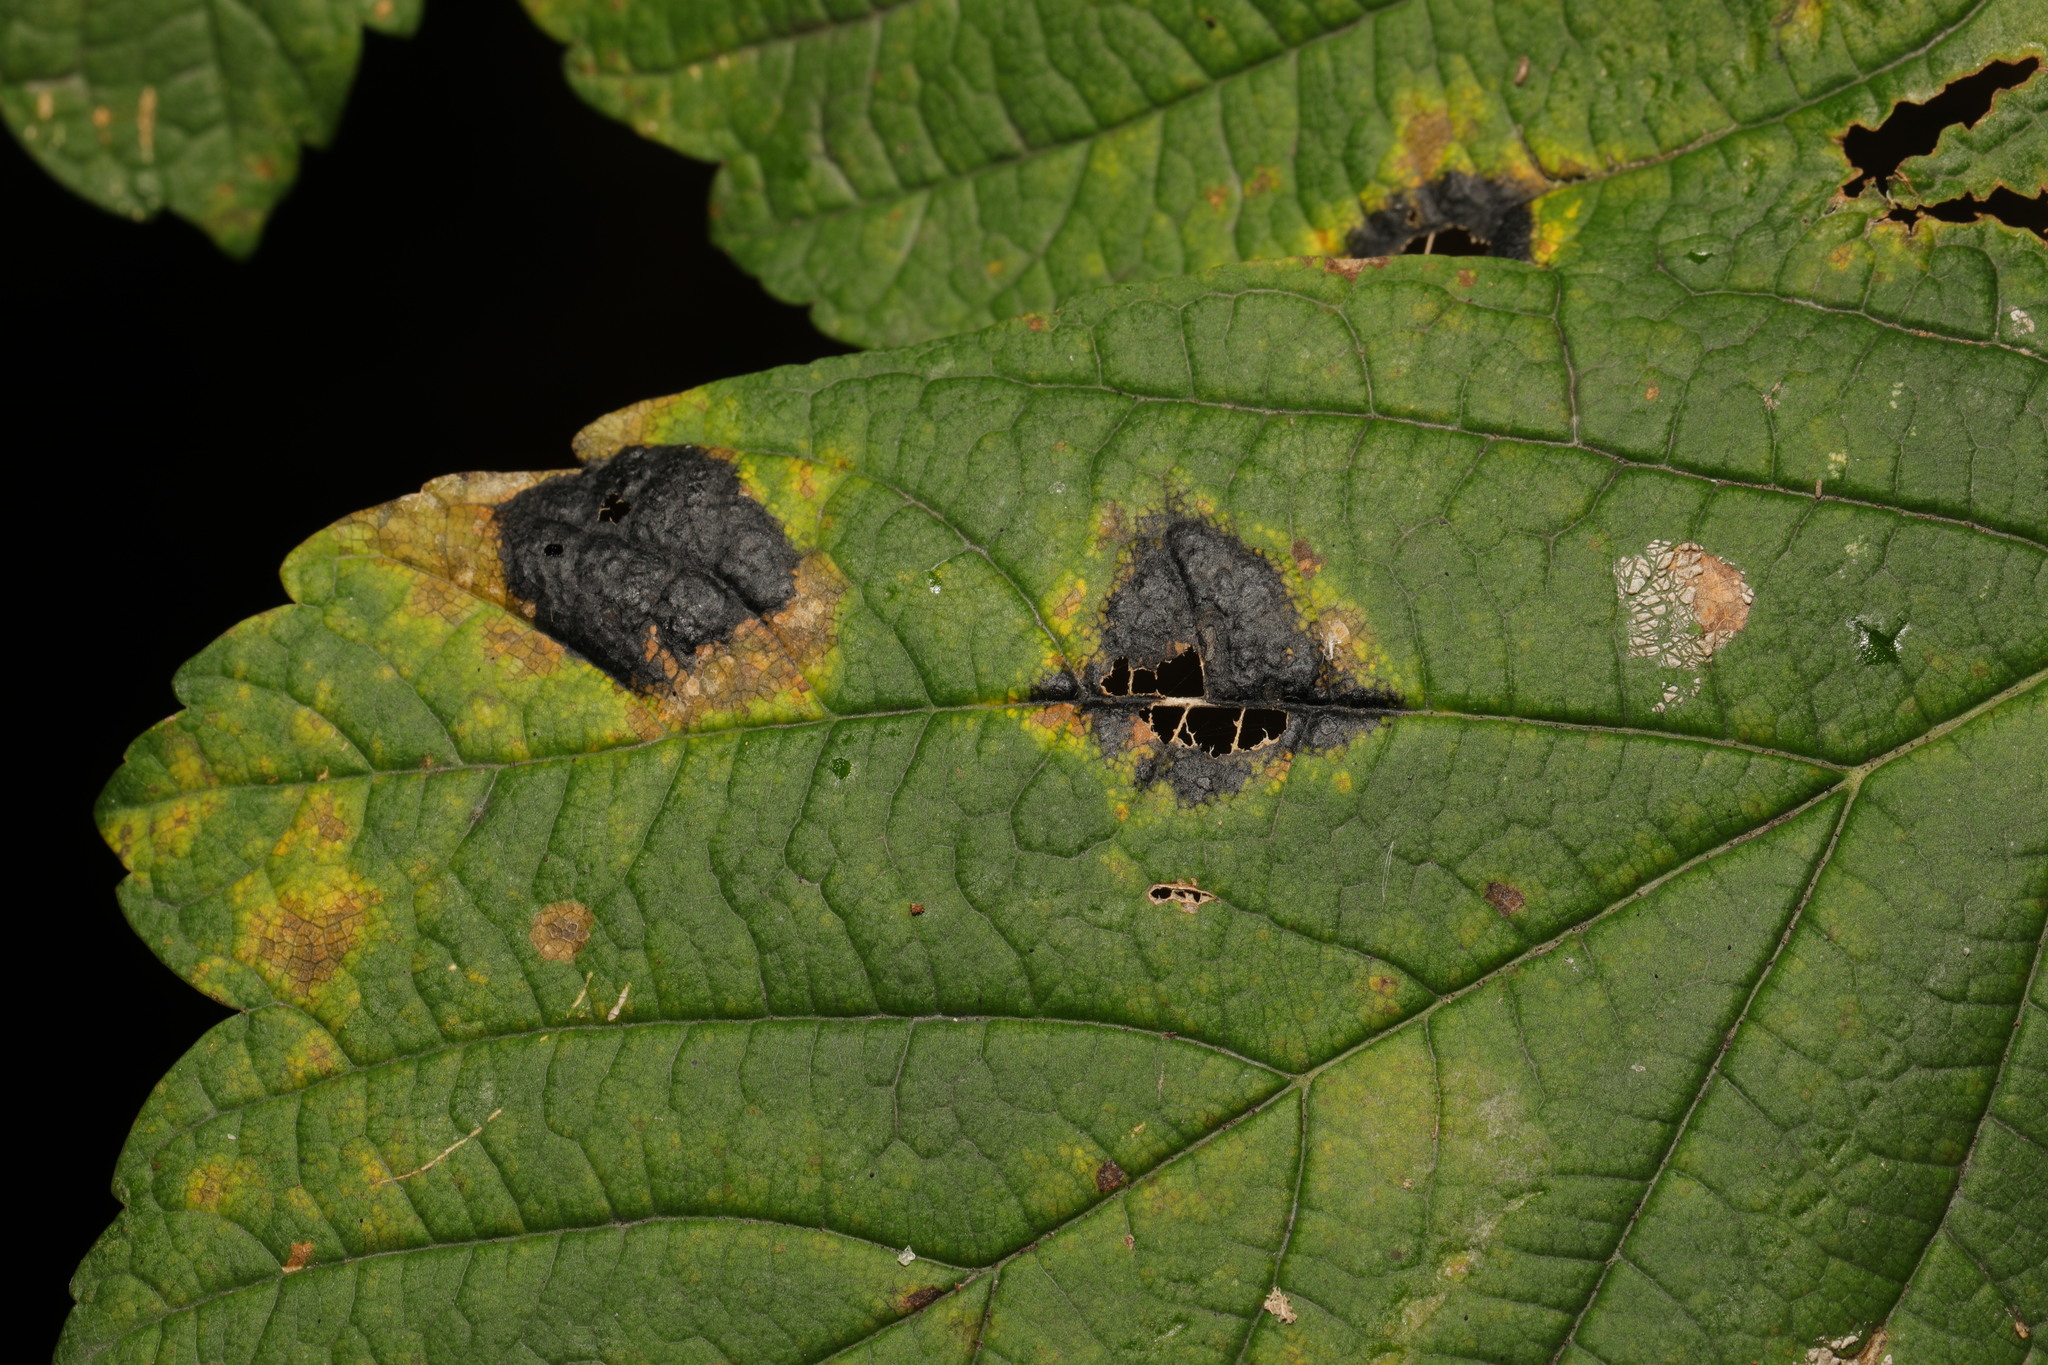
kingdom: Fungi
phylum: Ascomycota
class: Leotiomycetes
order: Rhytismatales
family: Rhytismataceae
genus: Rhytisma
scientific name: Rhytisma acerinum
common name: European tar spot
